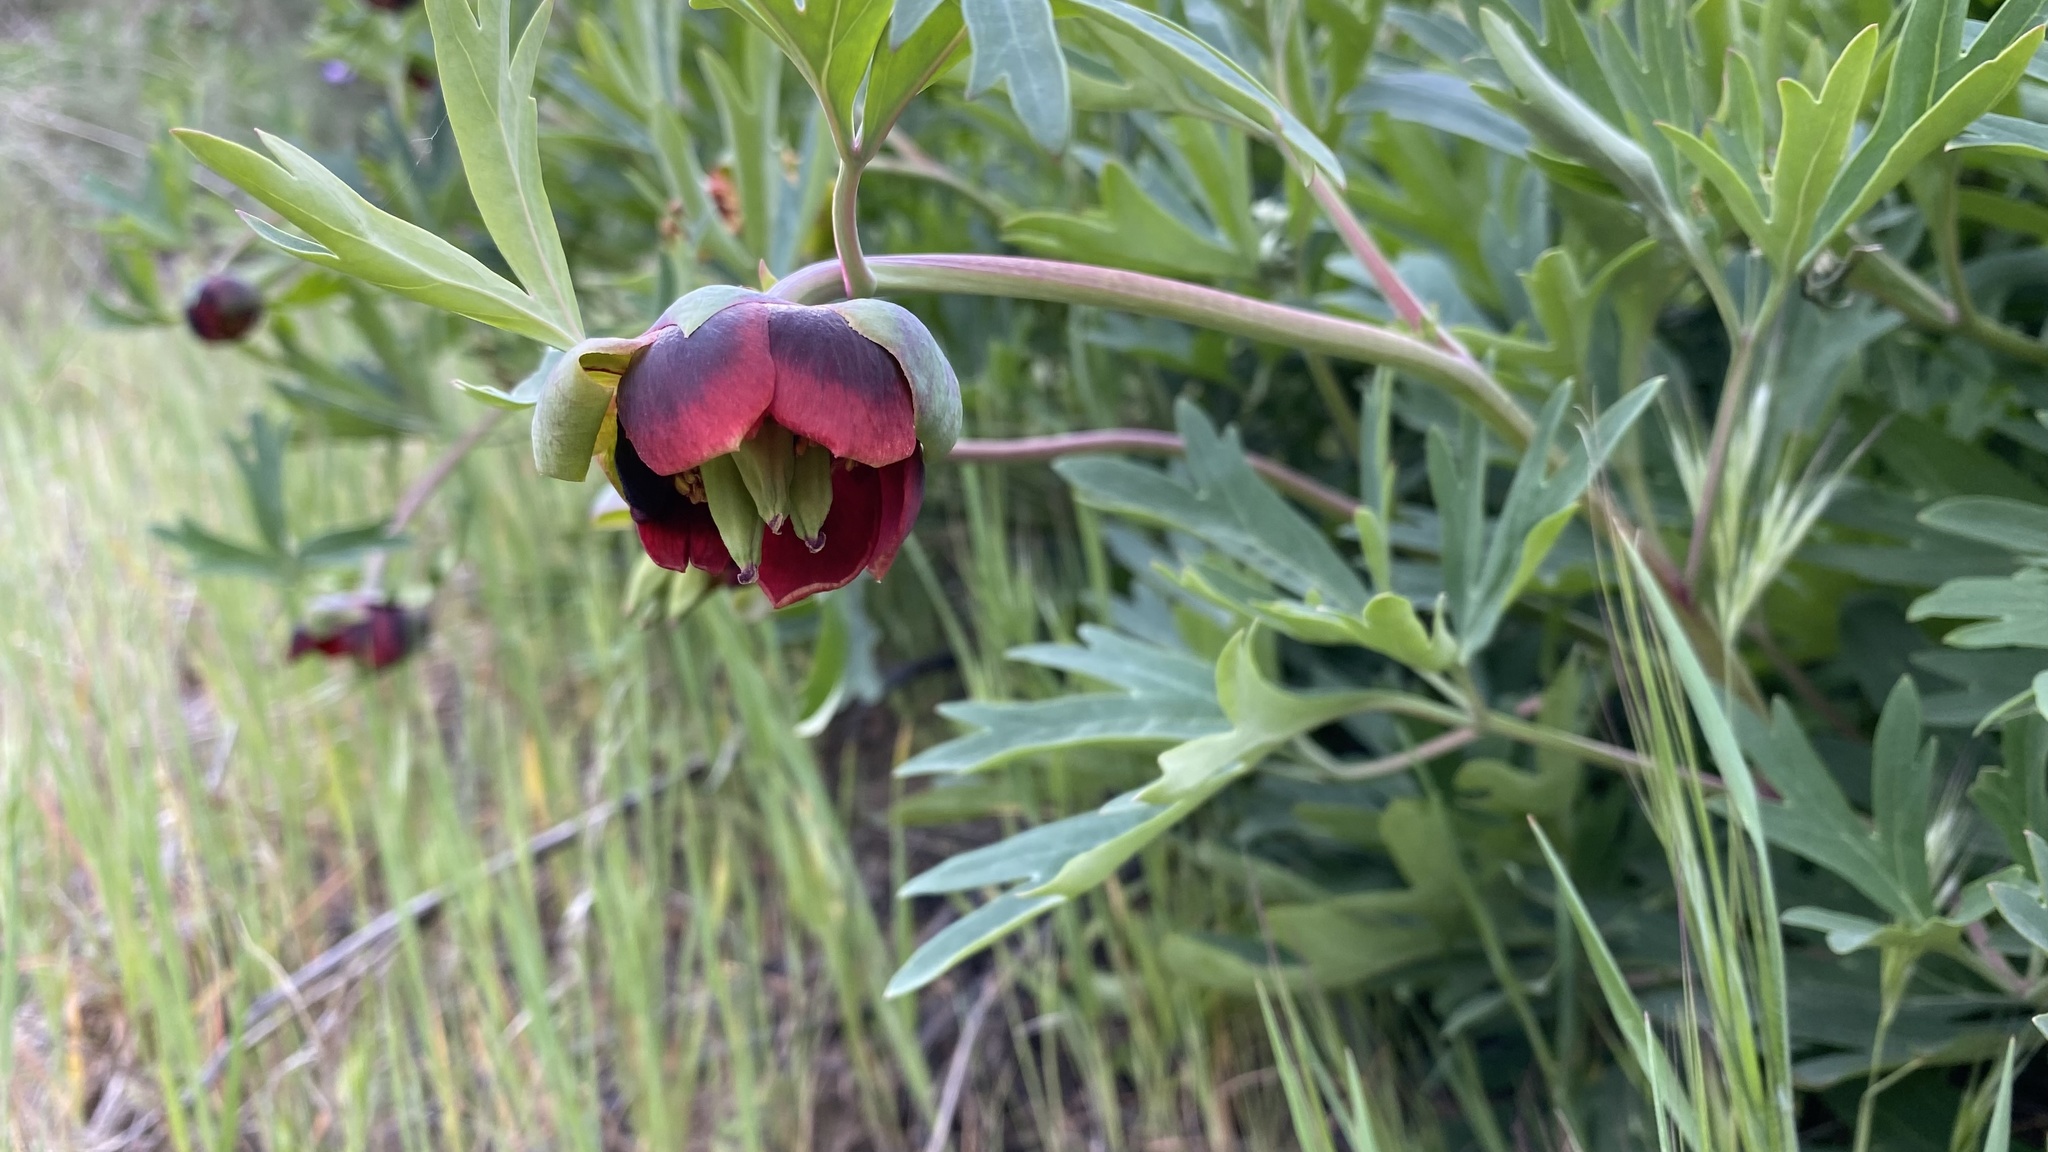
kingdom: Plantae
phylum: Tracheophyta
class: Magnoliopsida
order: Saxifragales
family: Paeoniaceae
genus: Paeonia
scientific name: Paeonia californica
